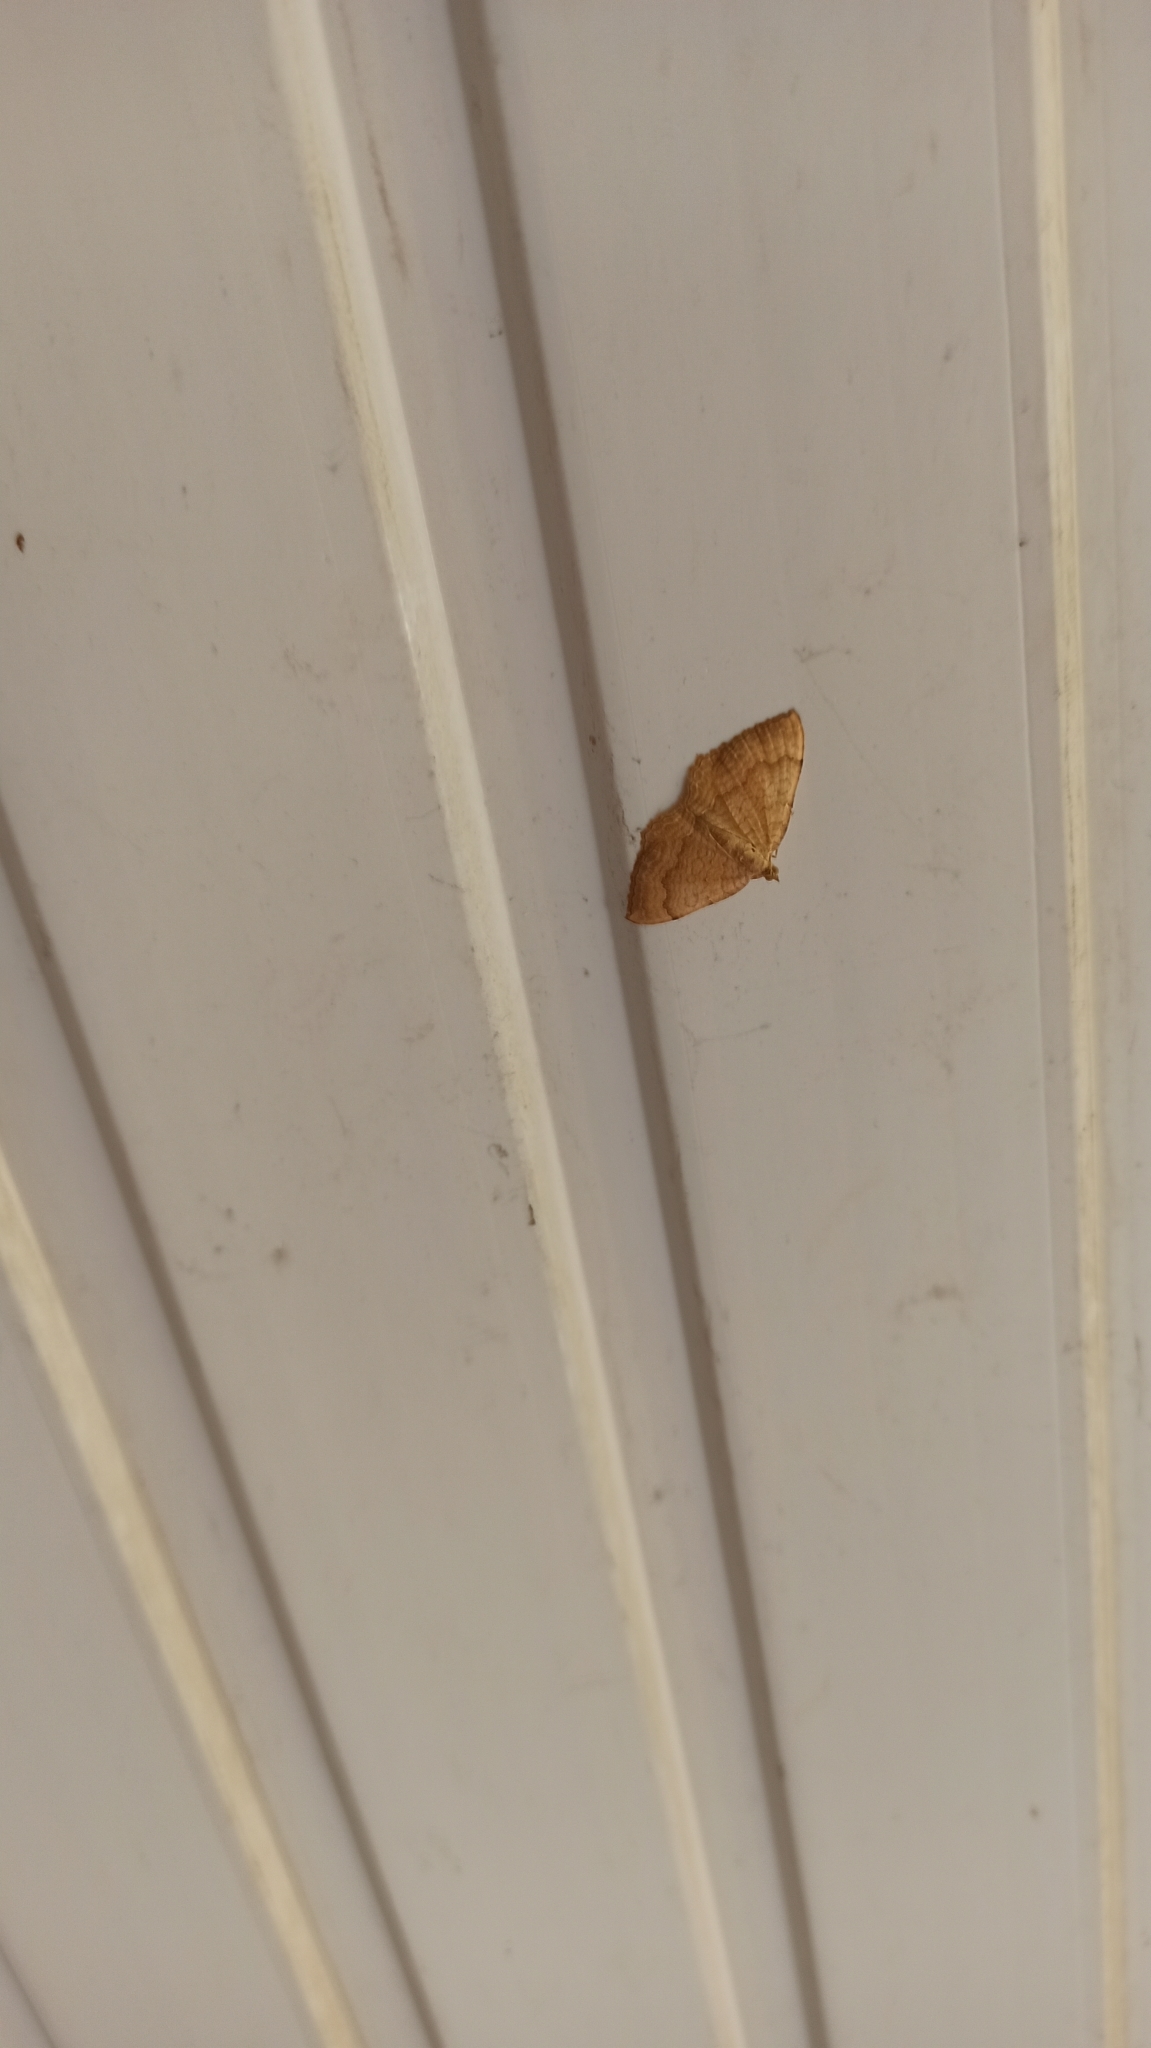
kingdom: Animalia
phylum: Arthropoda
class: Insecta
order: Lepidoptera
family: Geometridae
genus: Camptogramma
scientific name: Camptogramma bilineata
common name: Yellow shell
